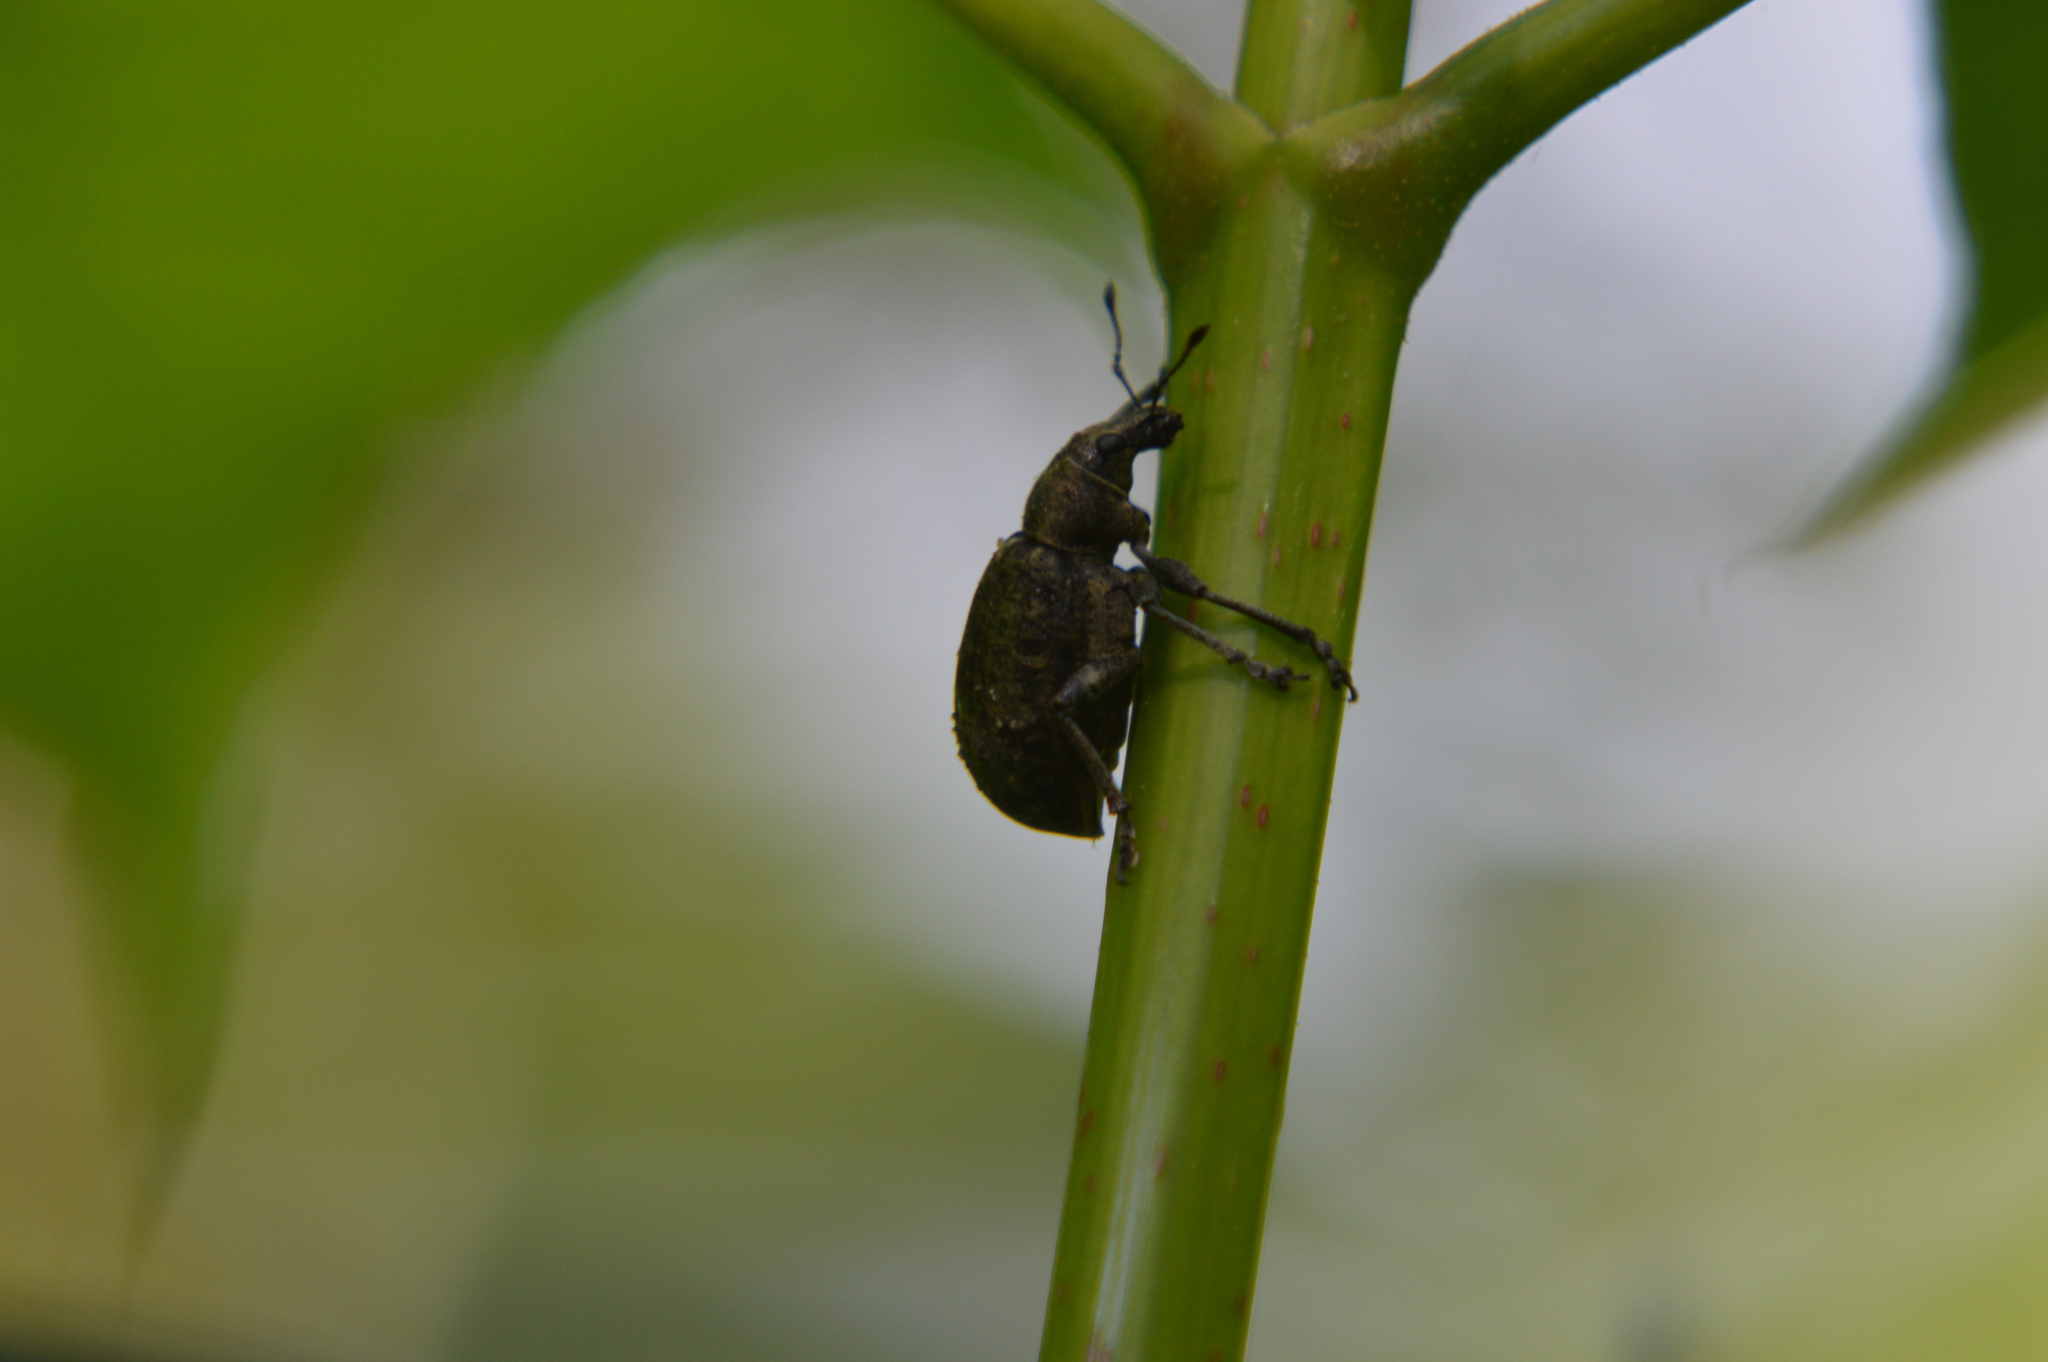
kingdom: Animalia
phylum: Arthropoda
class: Insecta
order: Coleoptera
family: Curculionidae
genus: Liophloeus
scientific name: Liophloeus tessulatus
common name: Weevil
